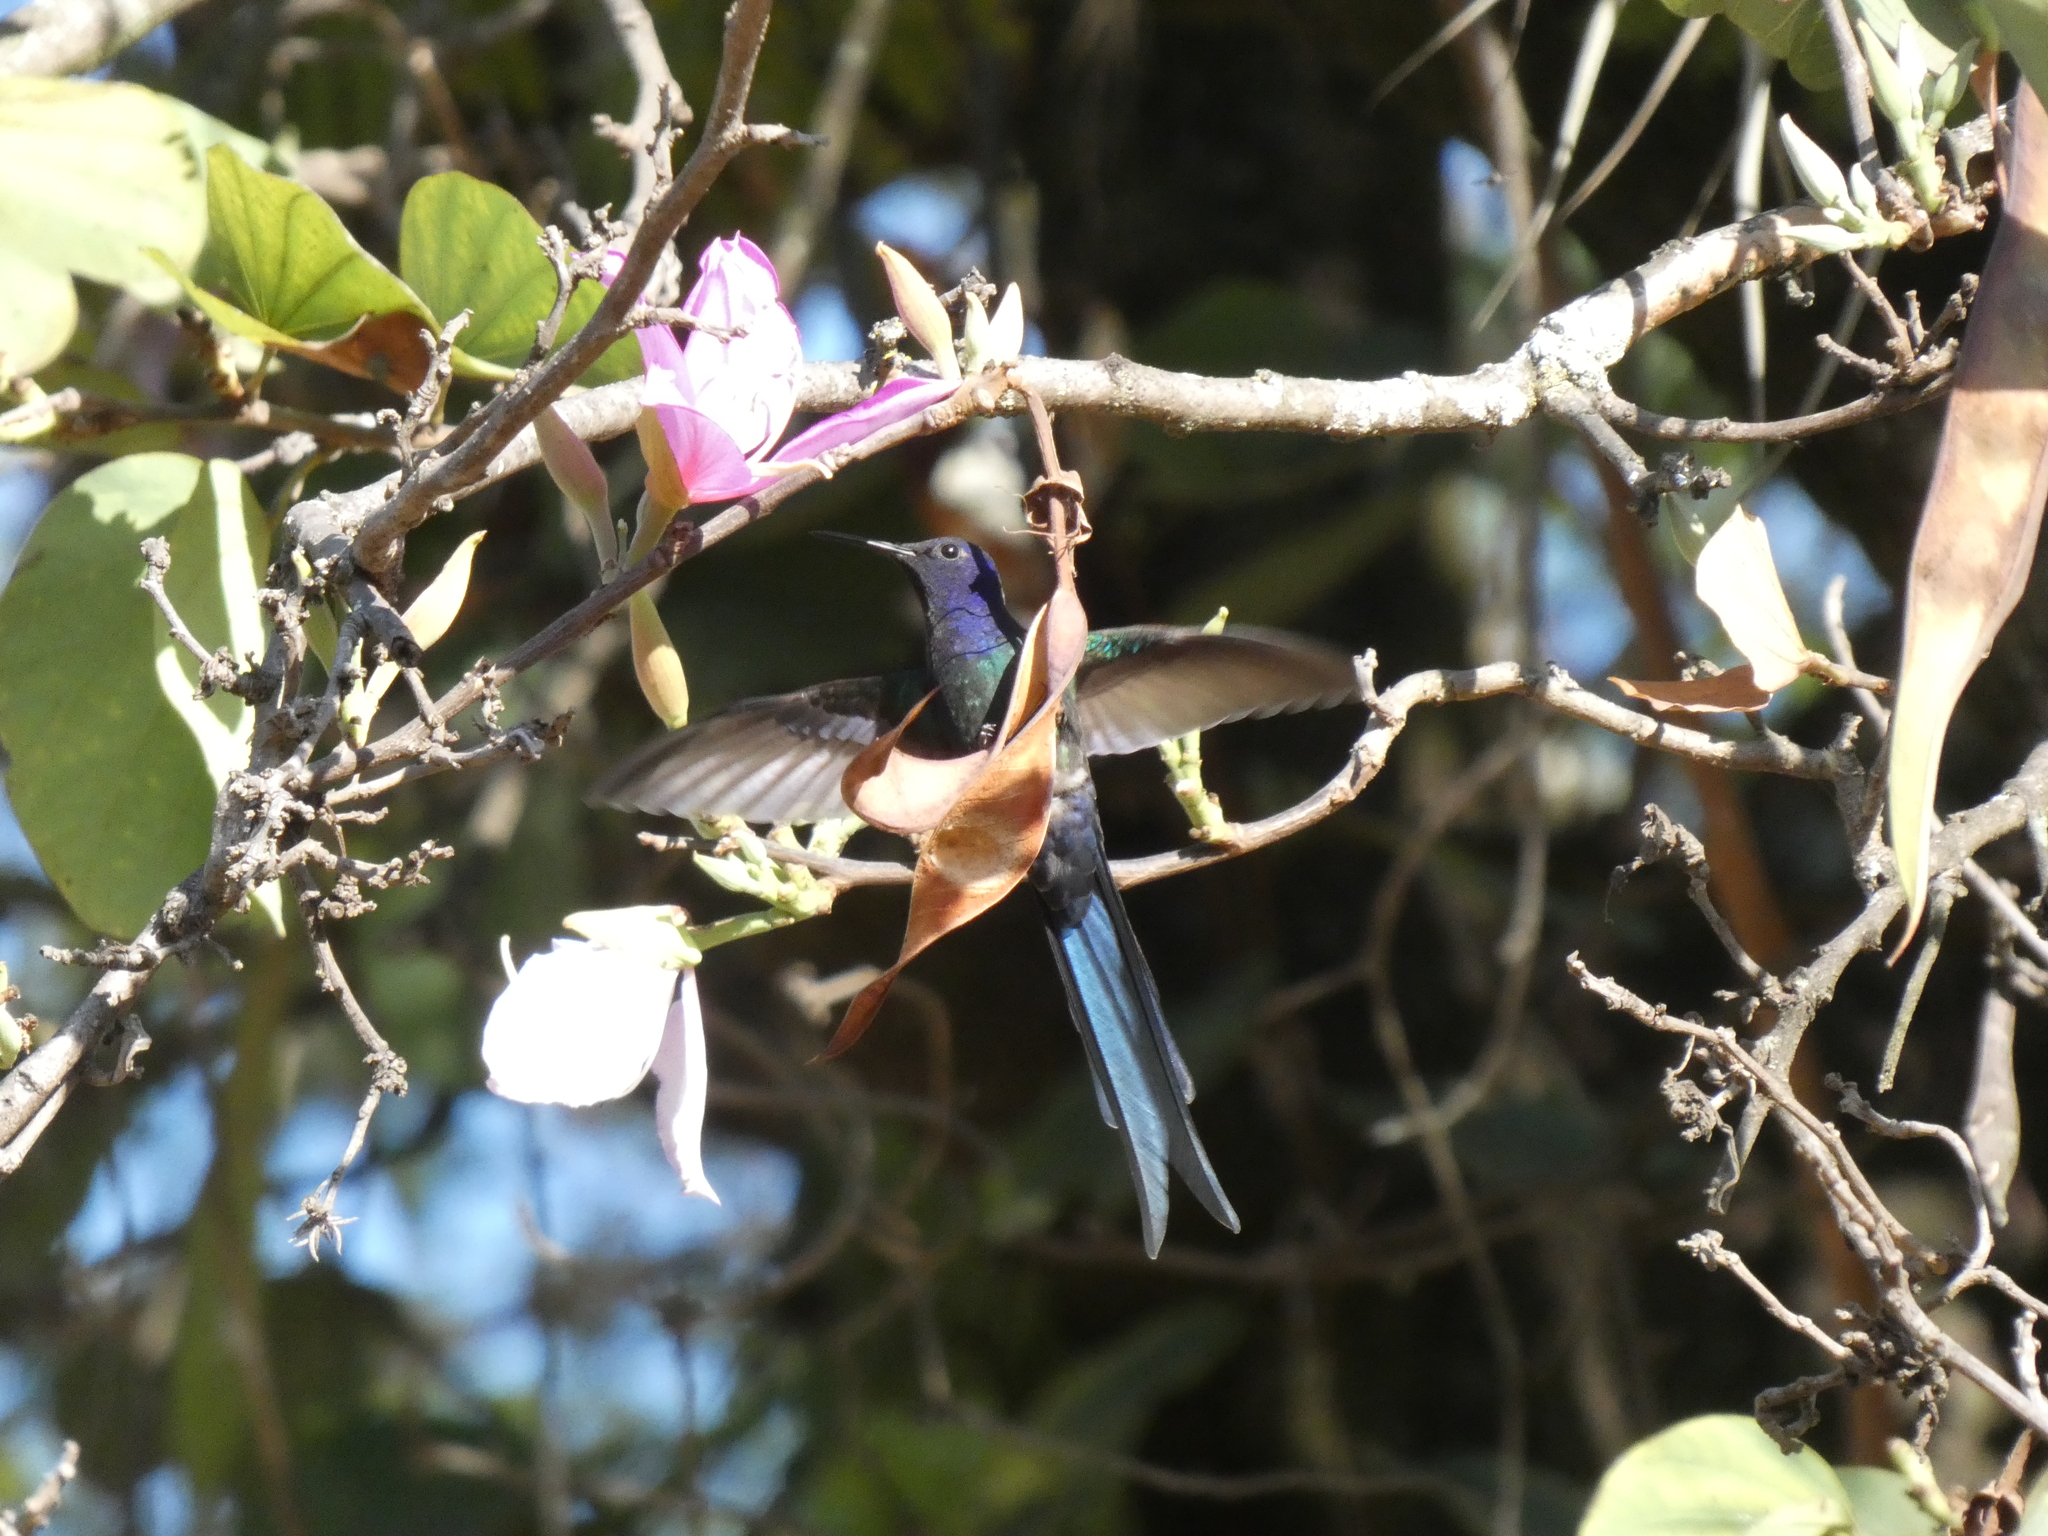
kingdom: Animalia
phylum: Chordata
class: Aves
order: Apodiformes
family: Trochilidae
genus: Eupetomena
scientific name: Eupetomena macroura
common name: Swallow-tailed hummingbird
